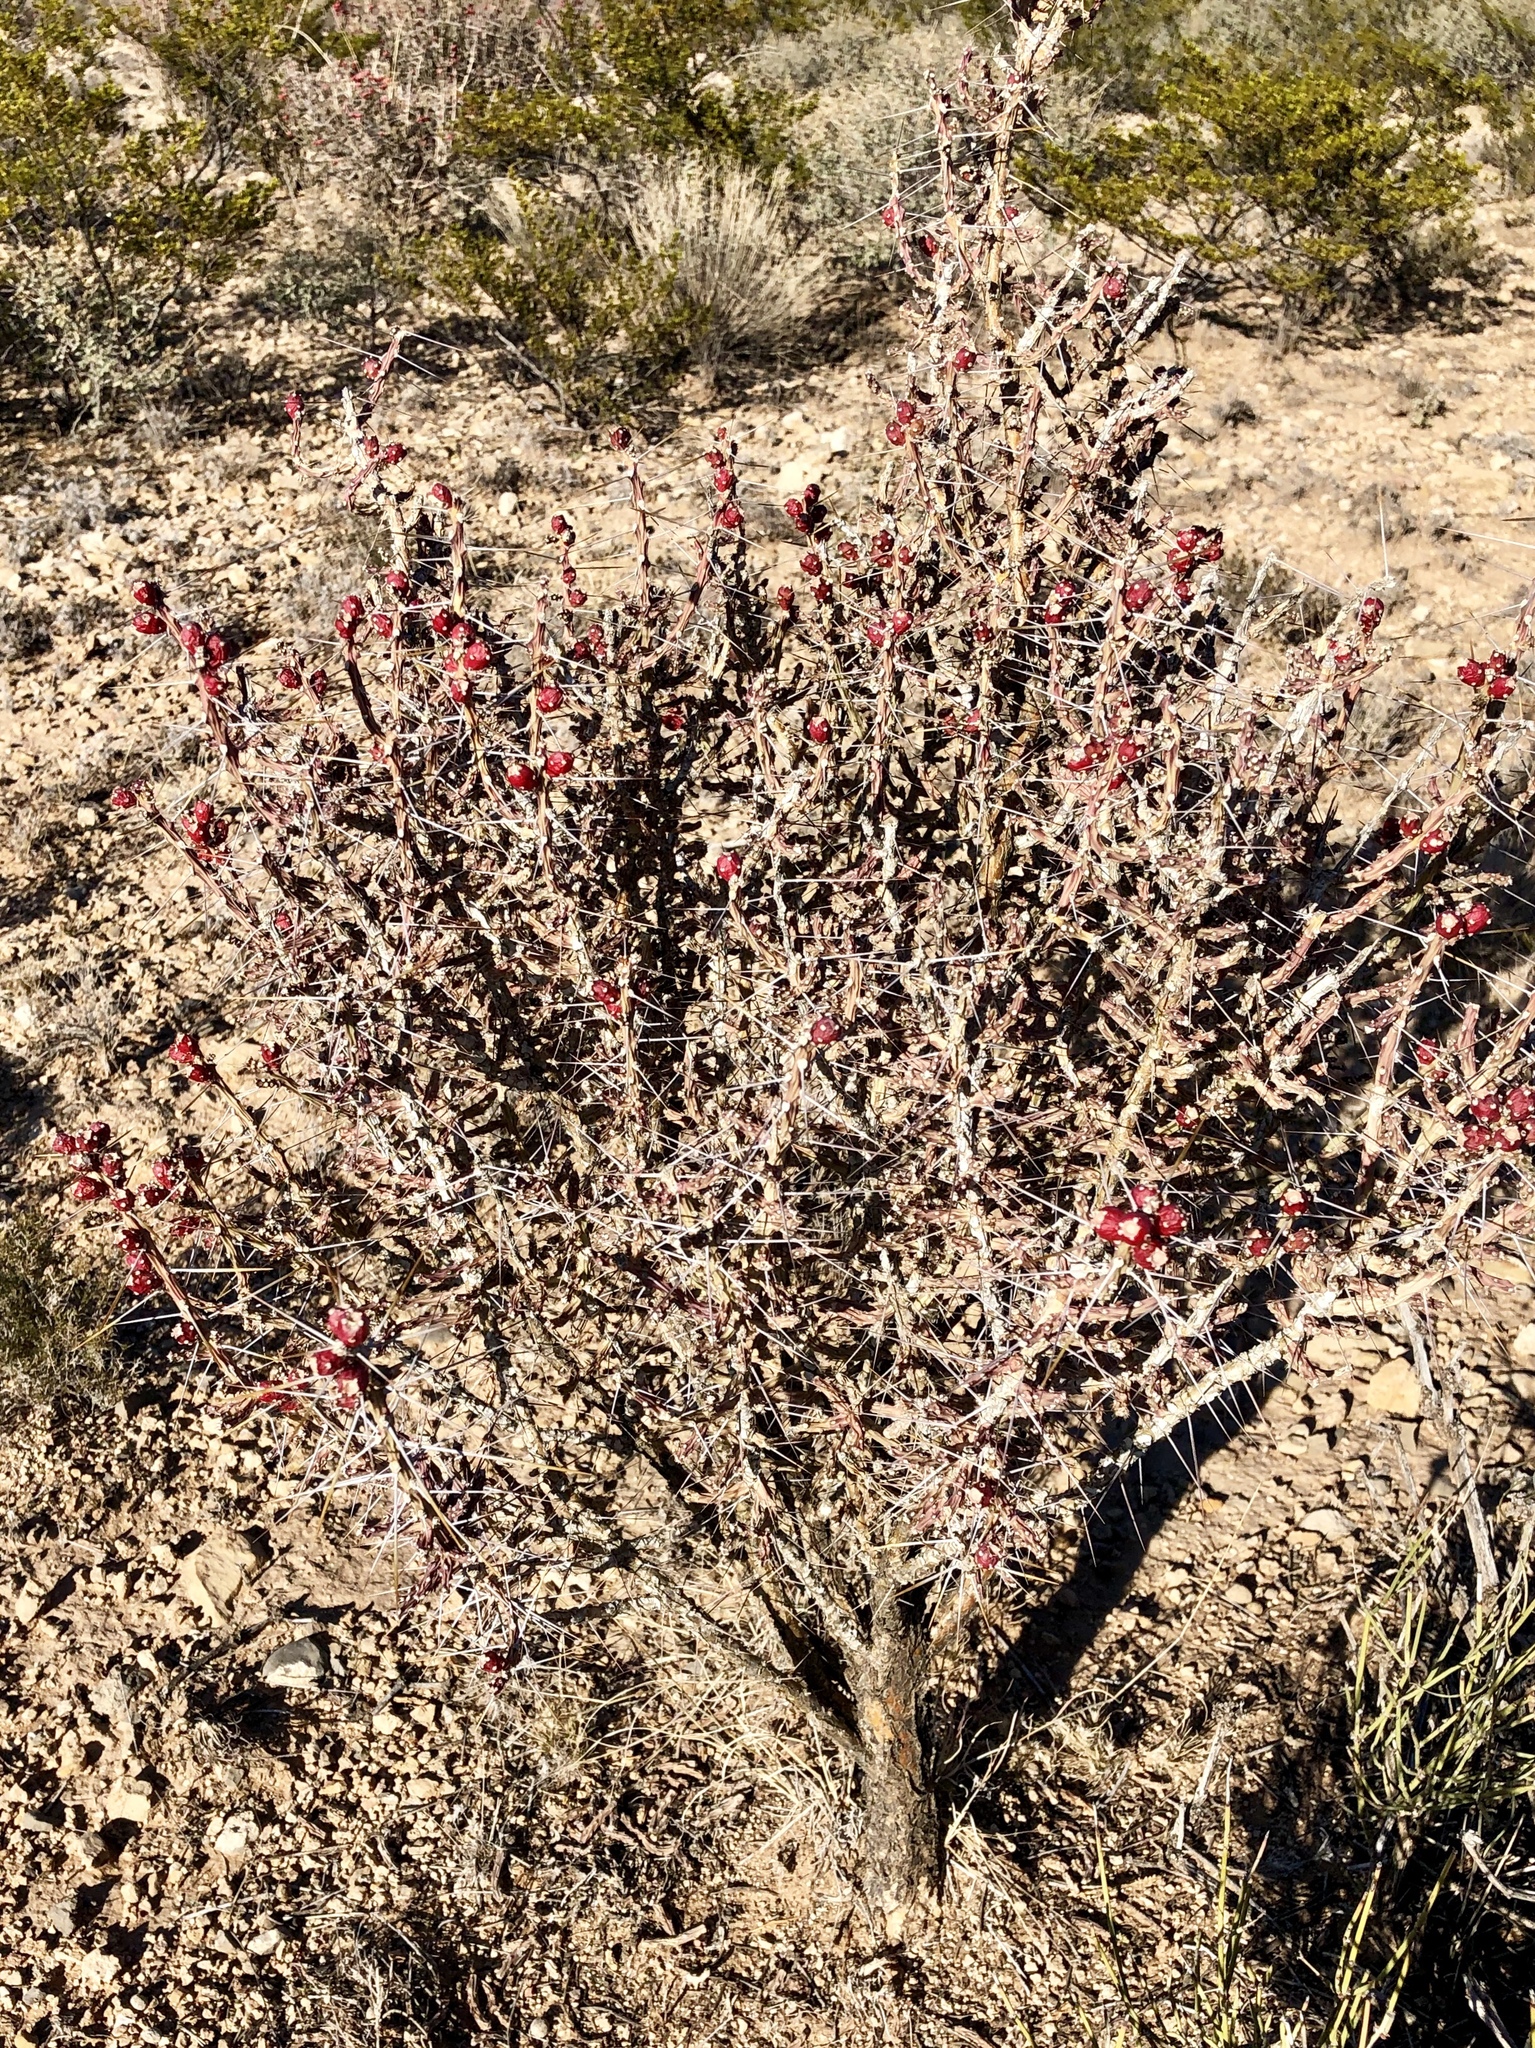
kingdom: Plantae
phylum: Tracheophyta
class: Magnoliopsida
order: Caryophyllales
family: Cactaceae
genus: Cylindropuntia
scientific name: Cylindropuntia leptocaulis
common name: Christmas cactus
